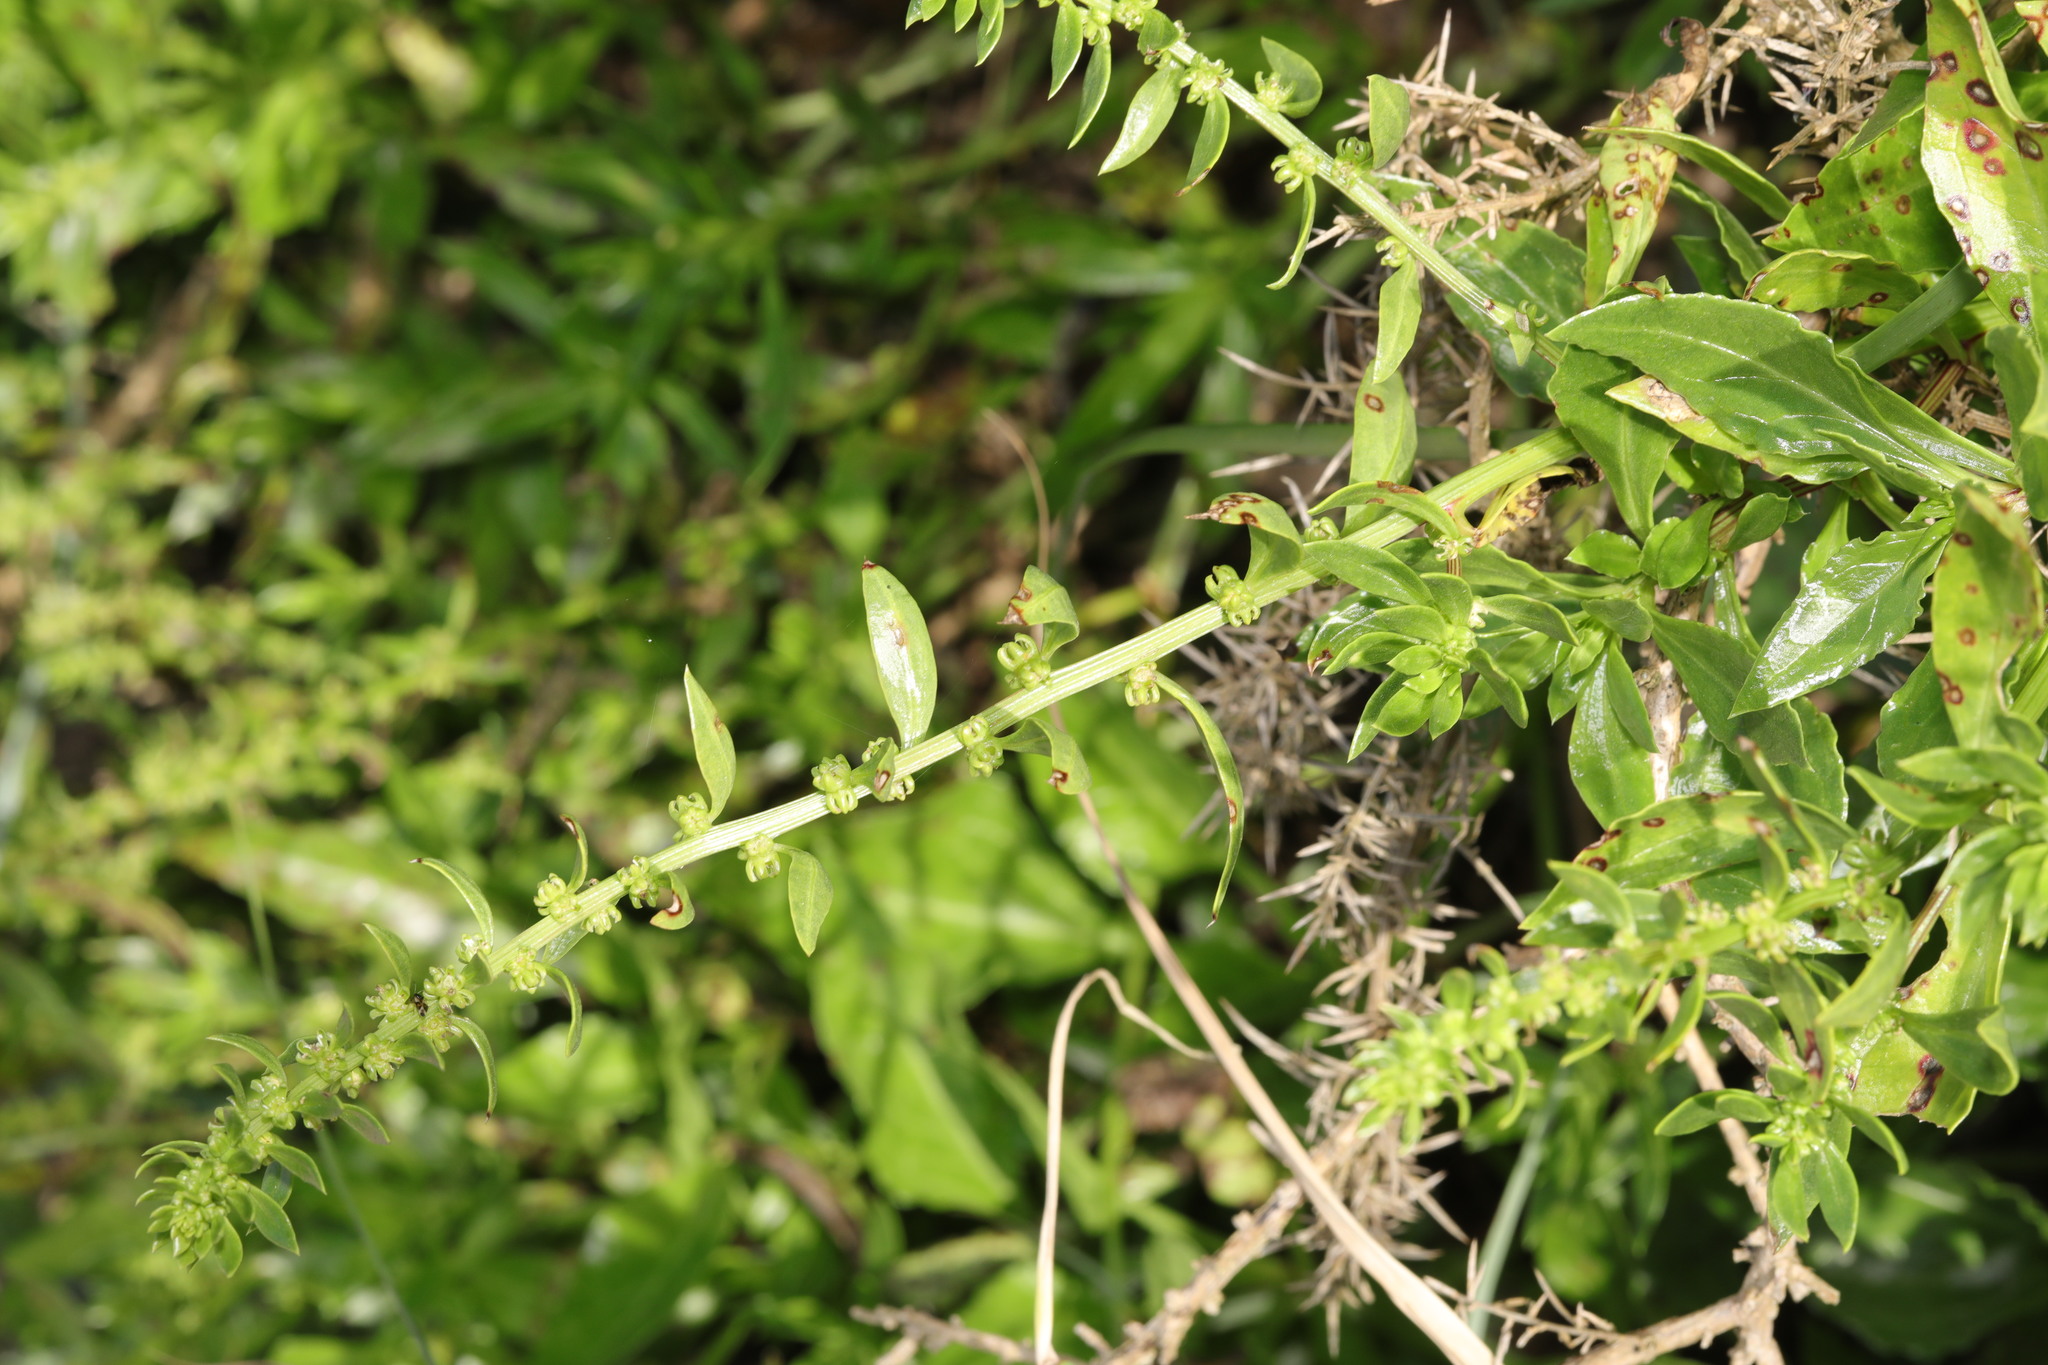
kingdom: Plantae
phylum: Tracheophyta
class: Magnoliopsida
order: Caryophyllales
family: Amaranthaceae
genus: Beta
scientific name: Beta vulgaris
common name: Beet
